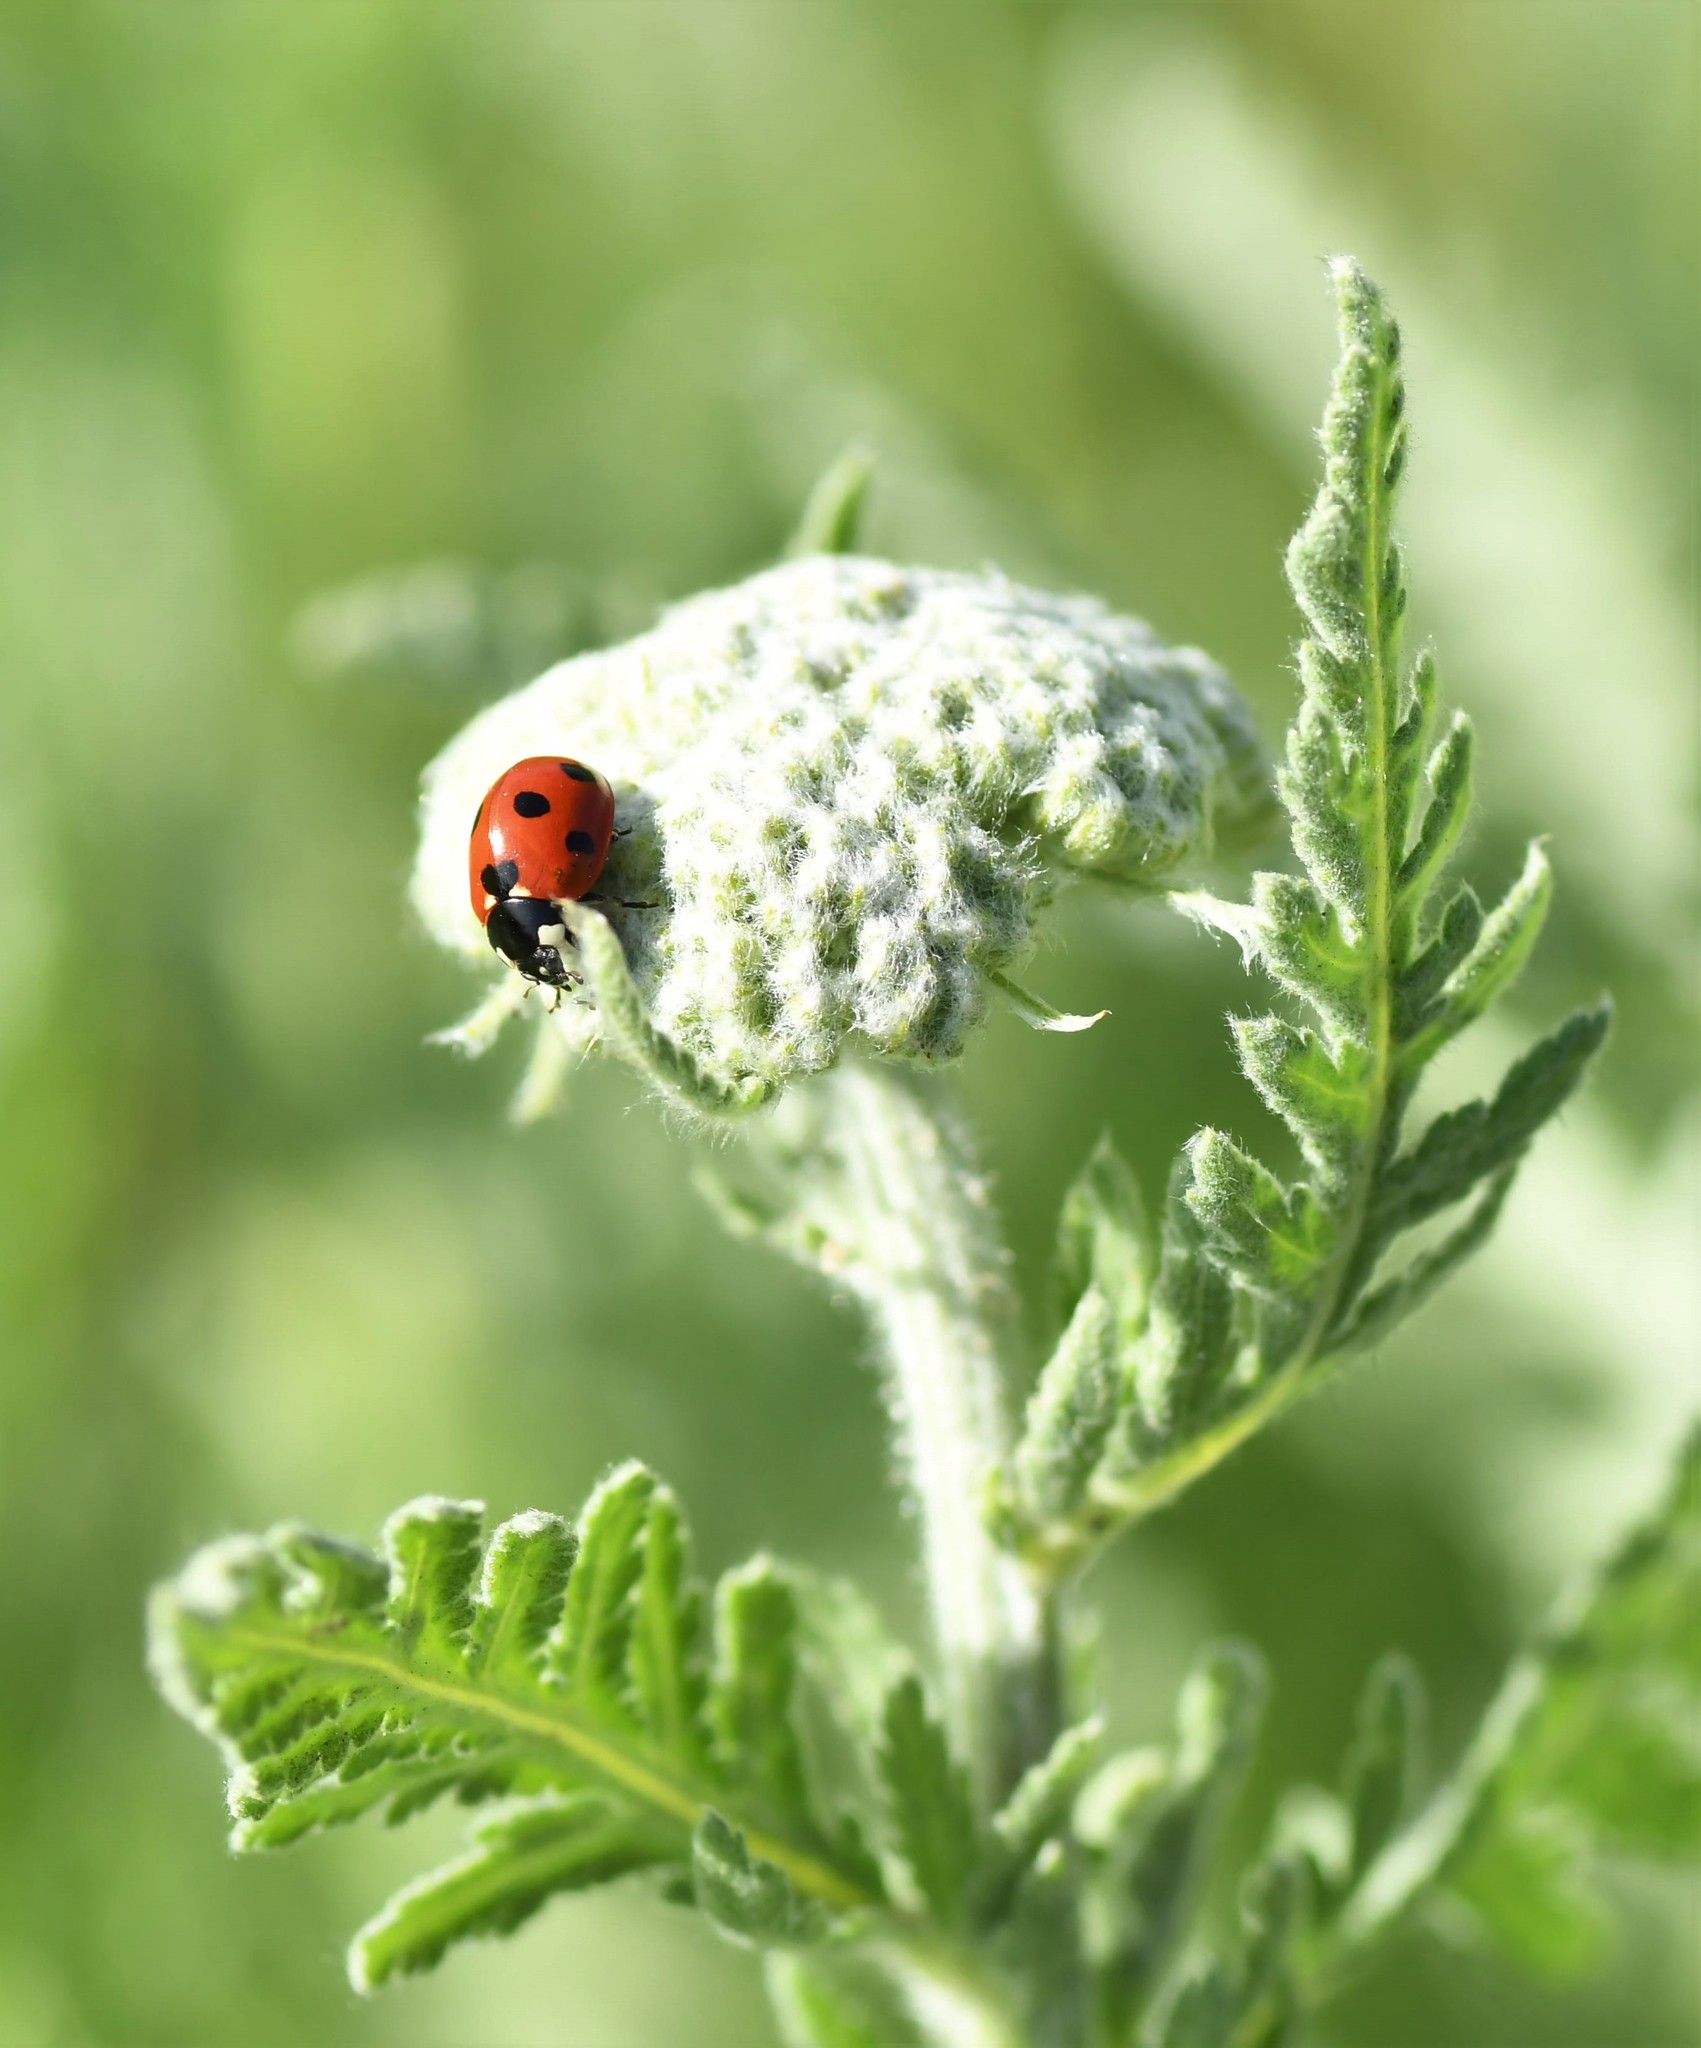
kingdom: Animalia
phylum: Arthropoda
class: Insecta
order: Coleoptera
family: Coccinellidae
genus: Coccinella
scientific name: Coccinella septempunctata
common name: Sevenspotted lady beetle
